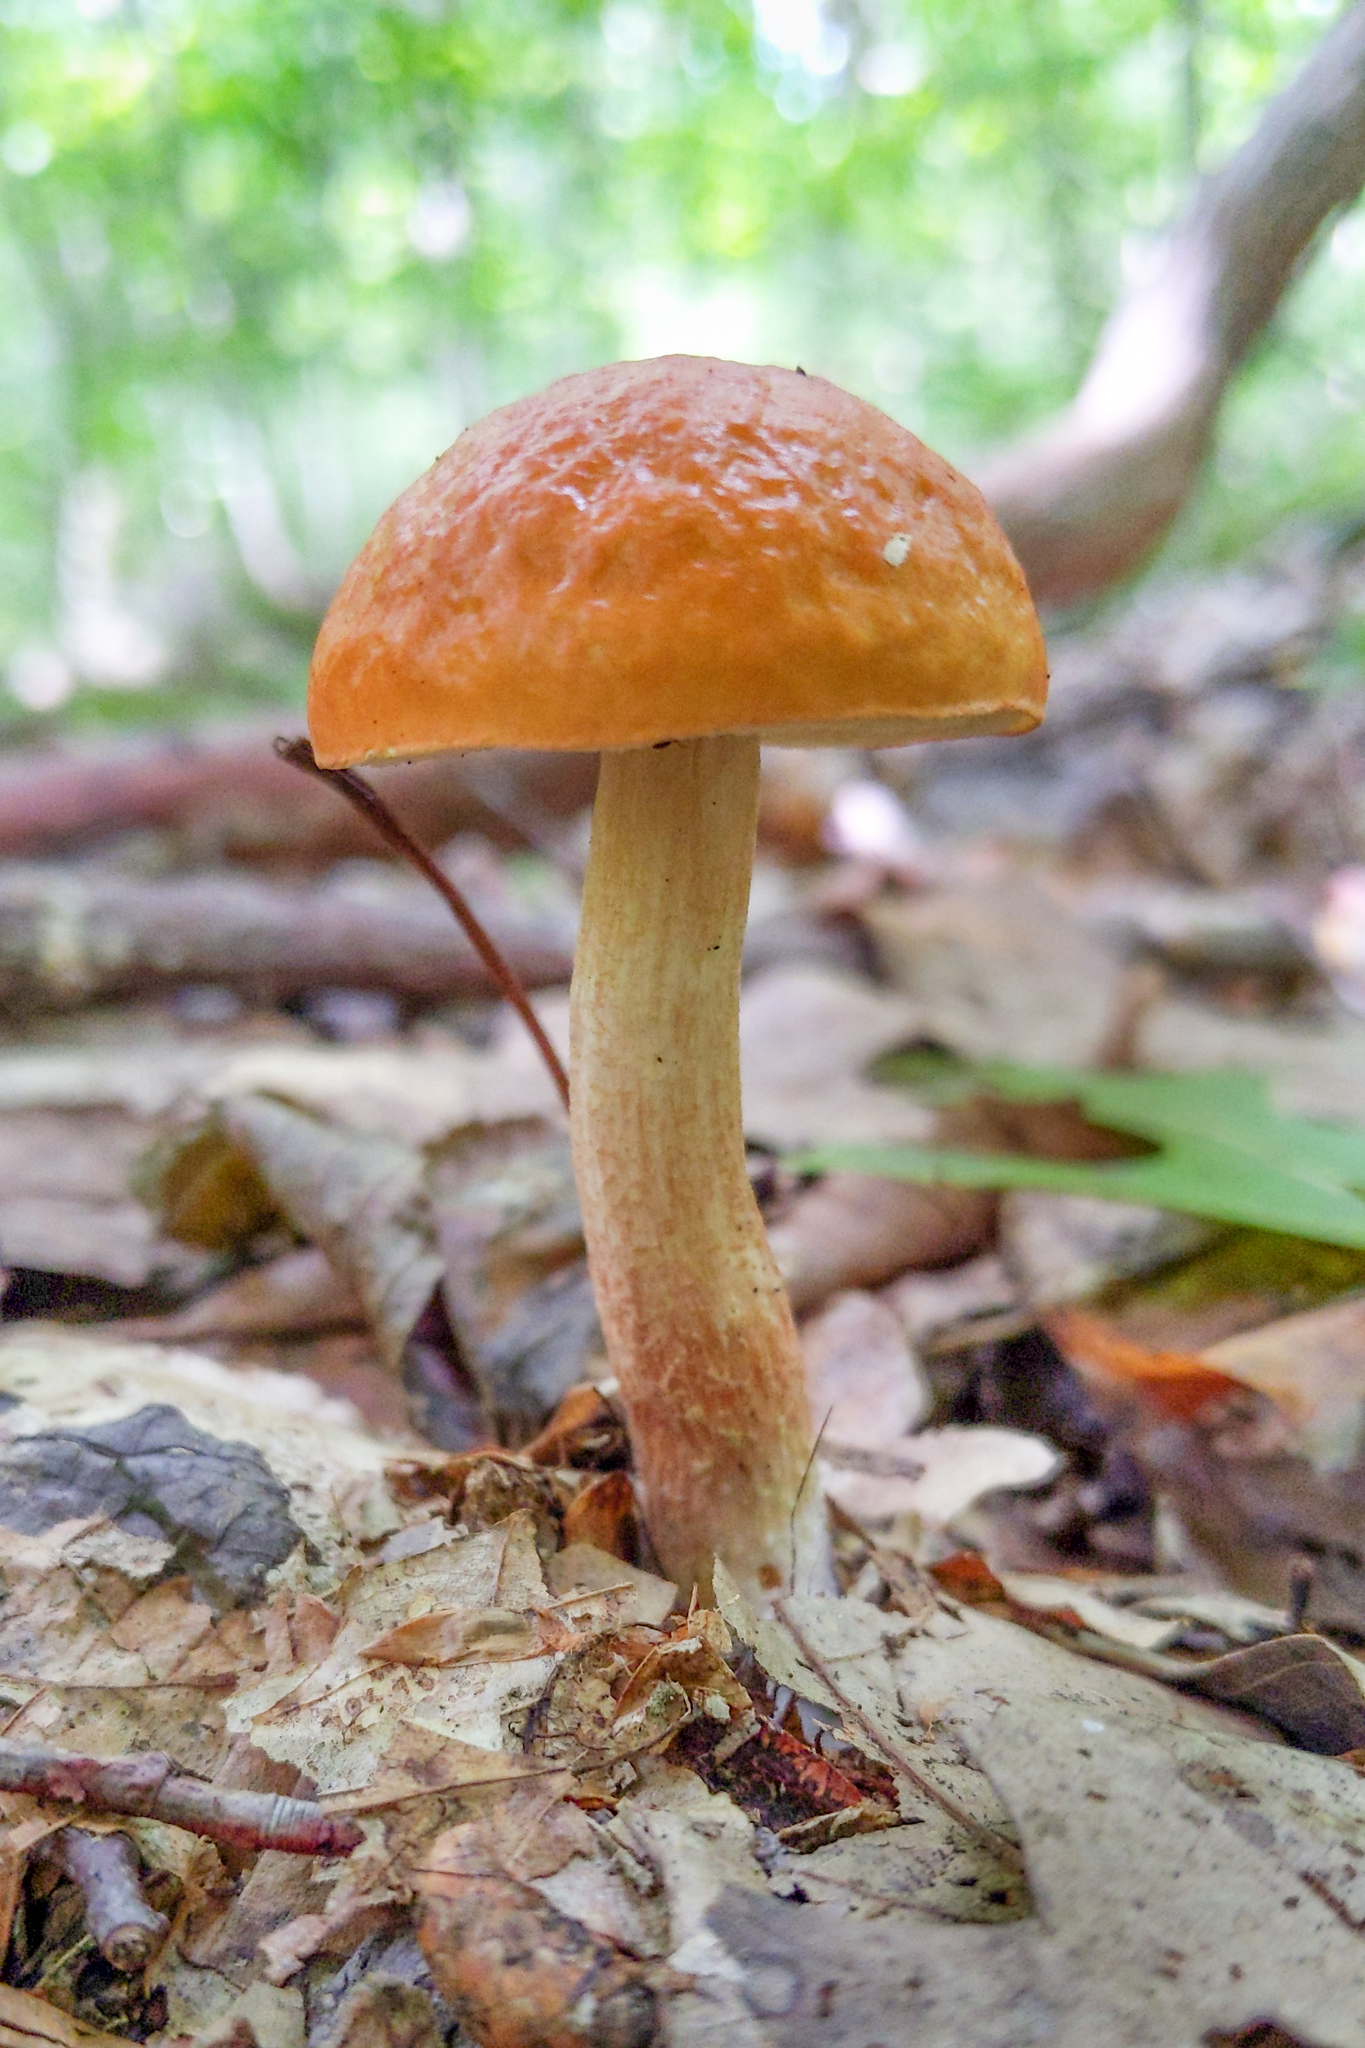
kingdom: Fungi
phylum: Basidiomycota
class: Agaricomycetes
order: Boletales
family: Boletaceae
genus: Leccinum
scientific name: Leccinum longicurvipes
